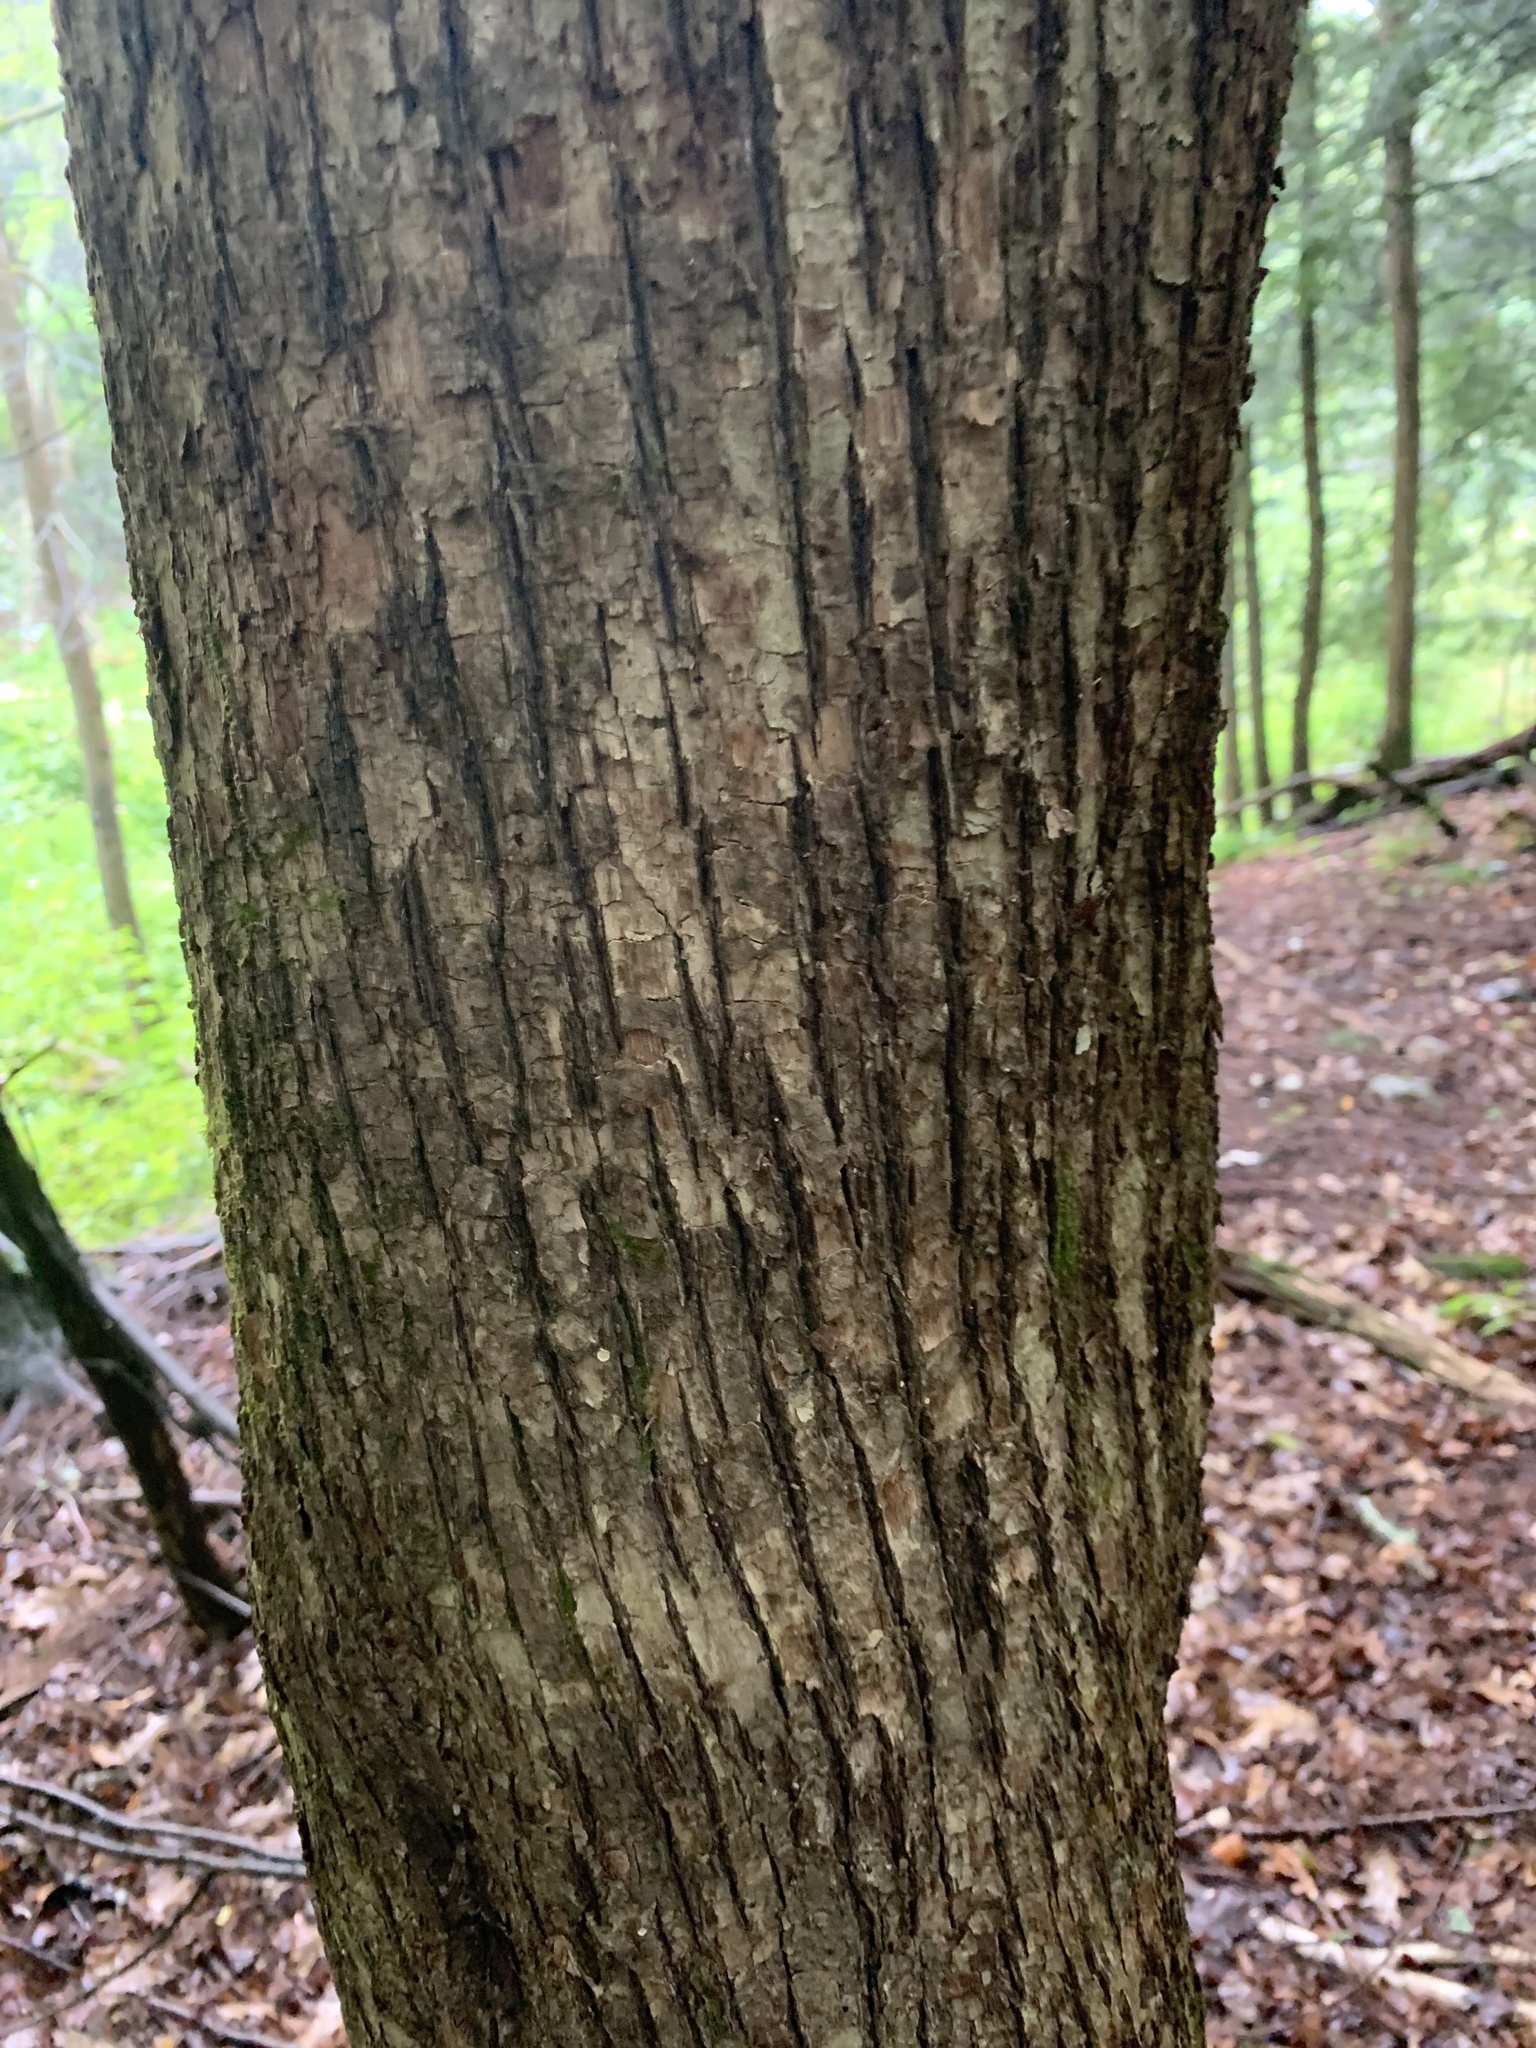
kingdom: Plantae
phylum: Tracheophyta
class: Magnoliopsida
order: Fagales
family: Betulaceae
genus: Ostrya
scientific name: Ostrya virginiana
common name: Ironwood
